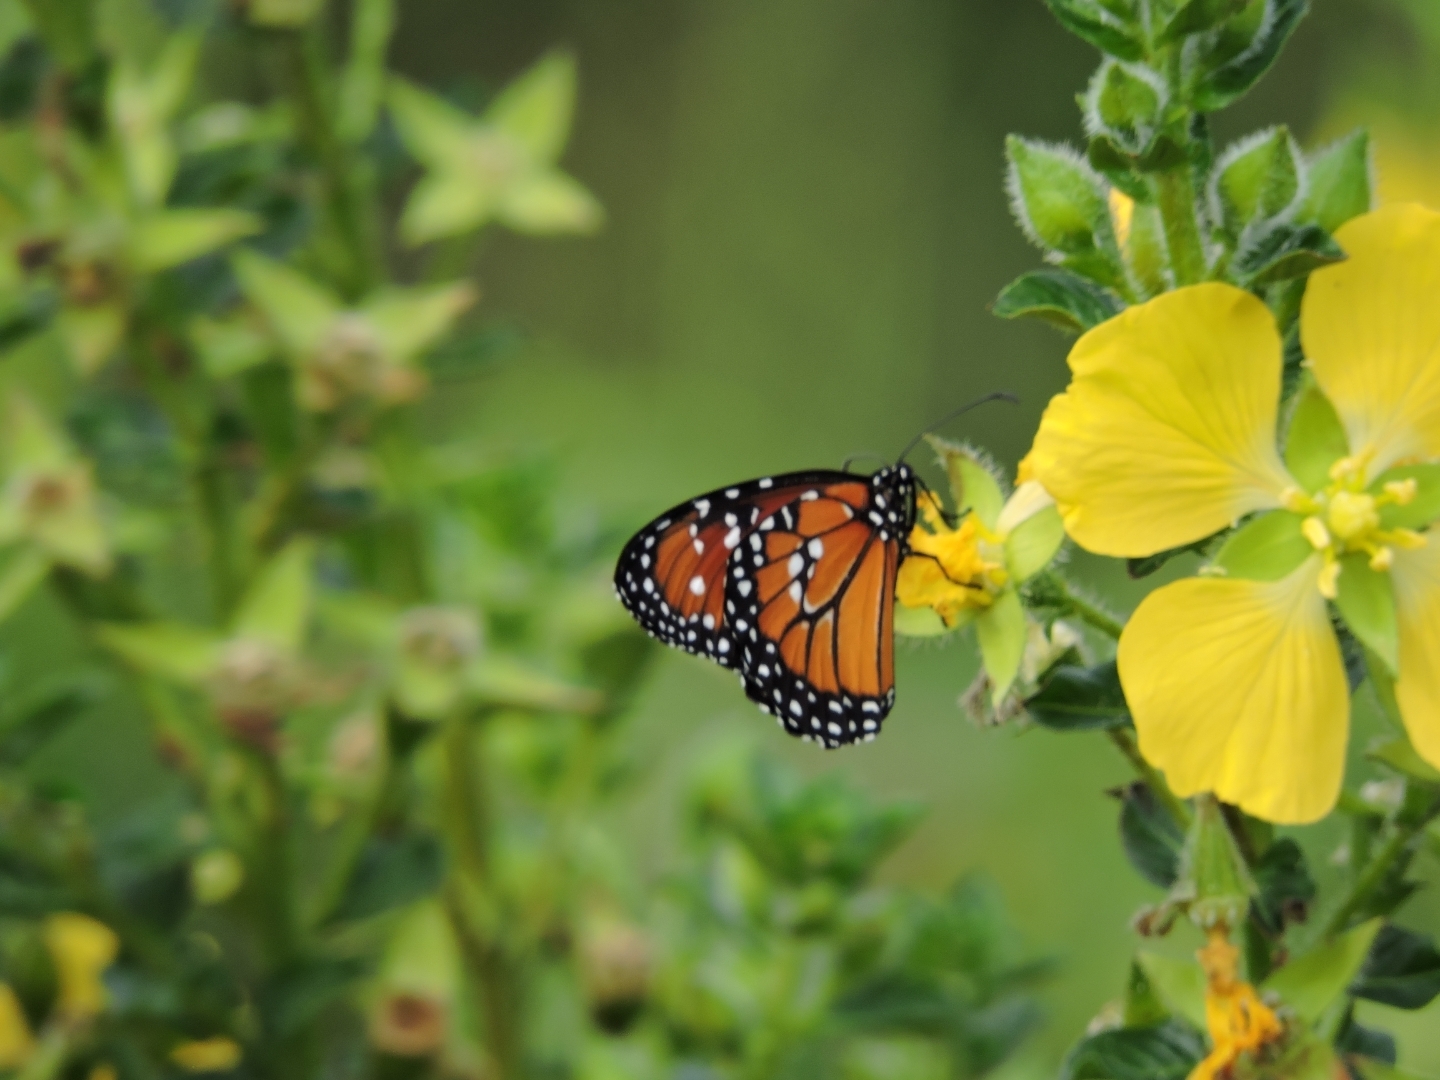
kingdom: Animalia
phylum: Arthropoda
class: Insecta
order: Lepidoptera
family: Nymphalidae
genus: Danaus
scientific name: Danaus gilippus
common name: Queen
